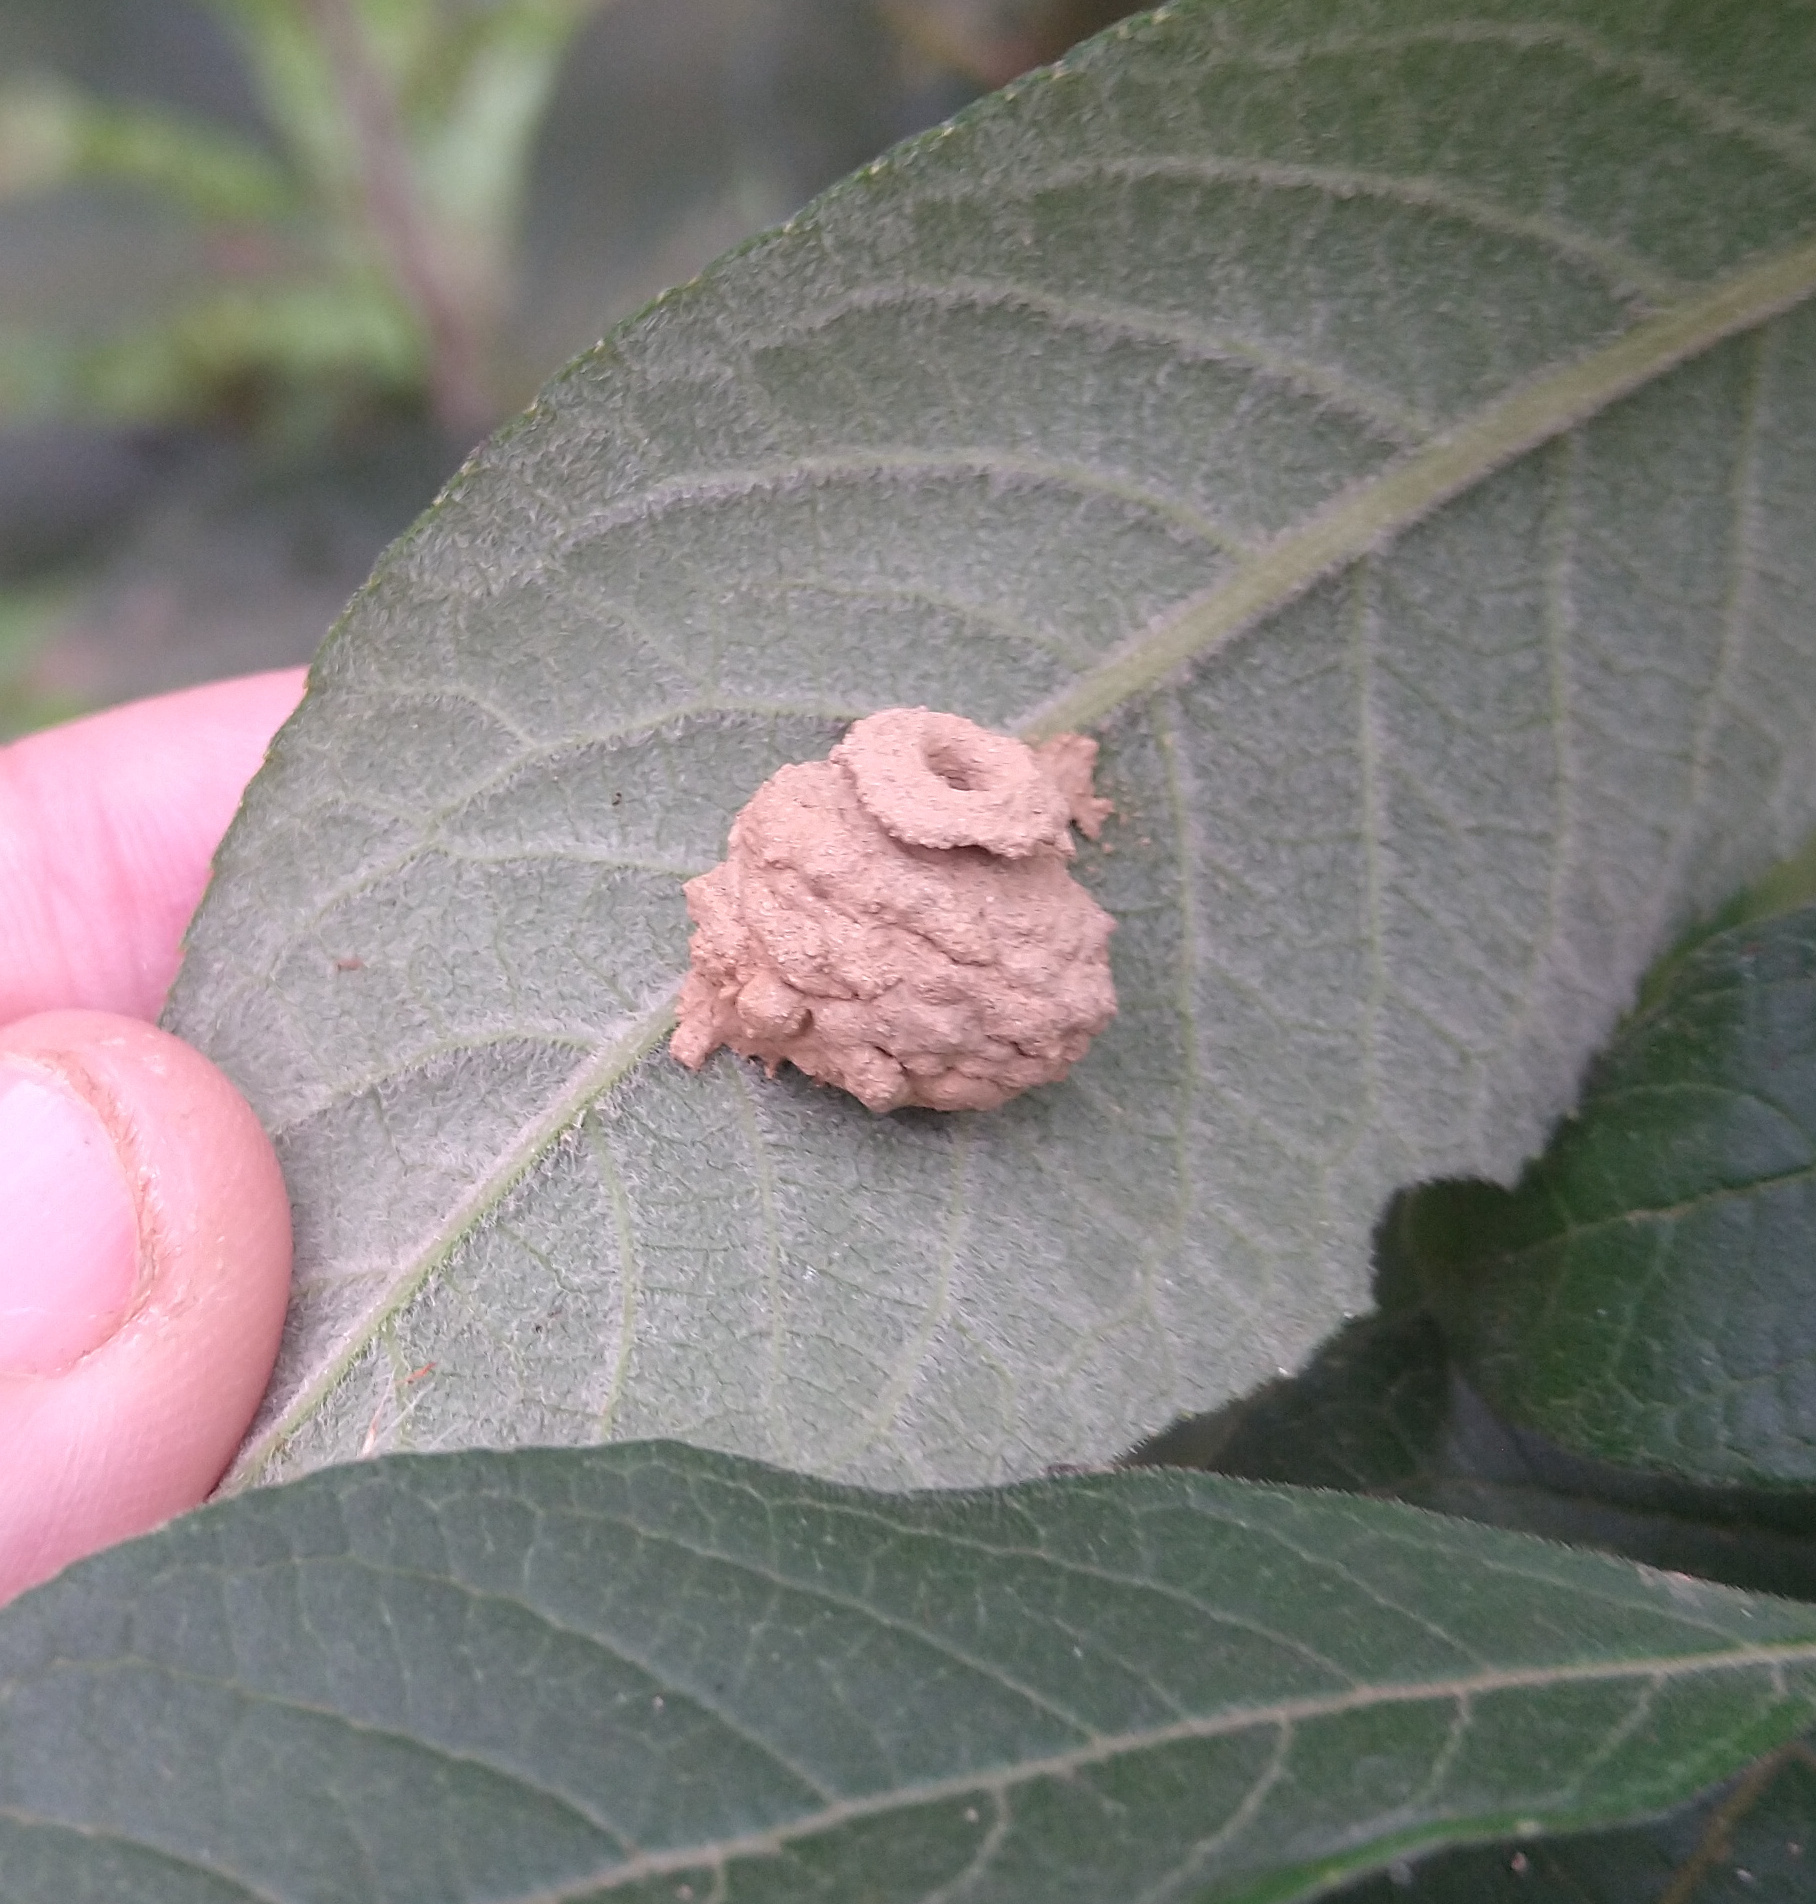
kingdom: Animalia
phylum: Arthropoda
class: Insecta
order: Hymenoptera
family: Eumenidae
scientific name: Eumenidae
